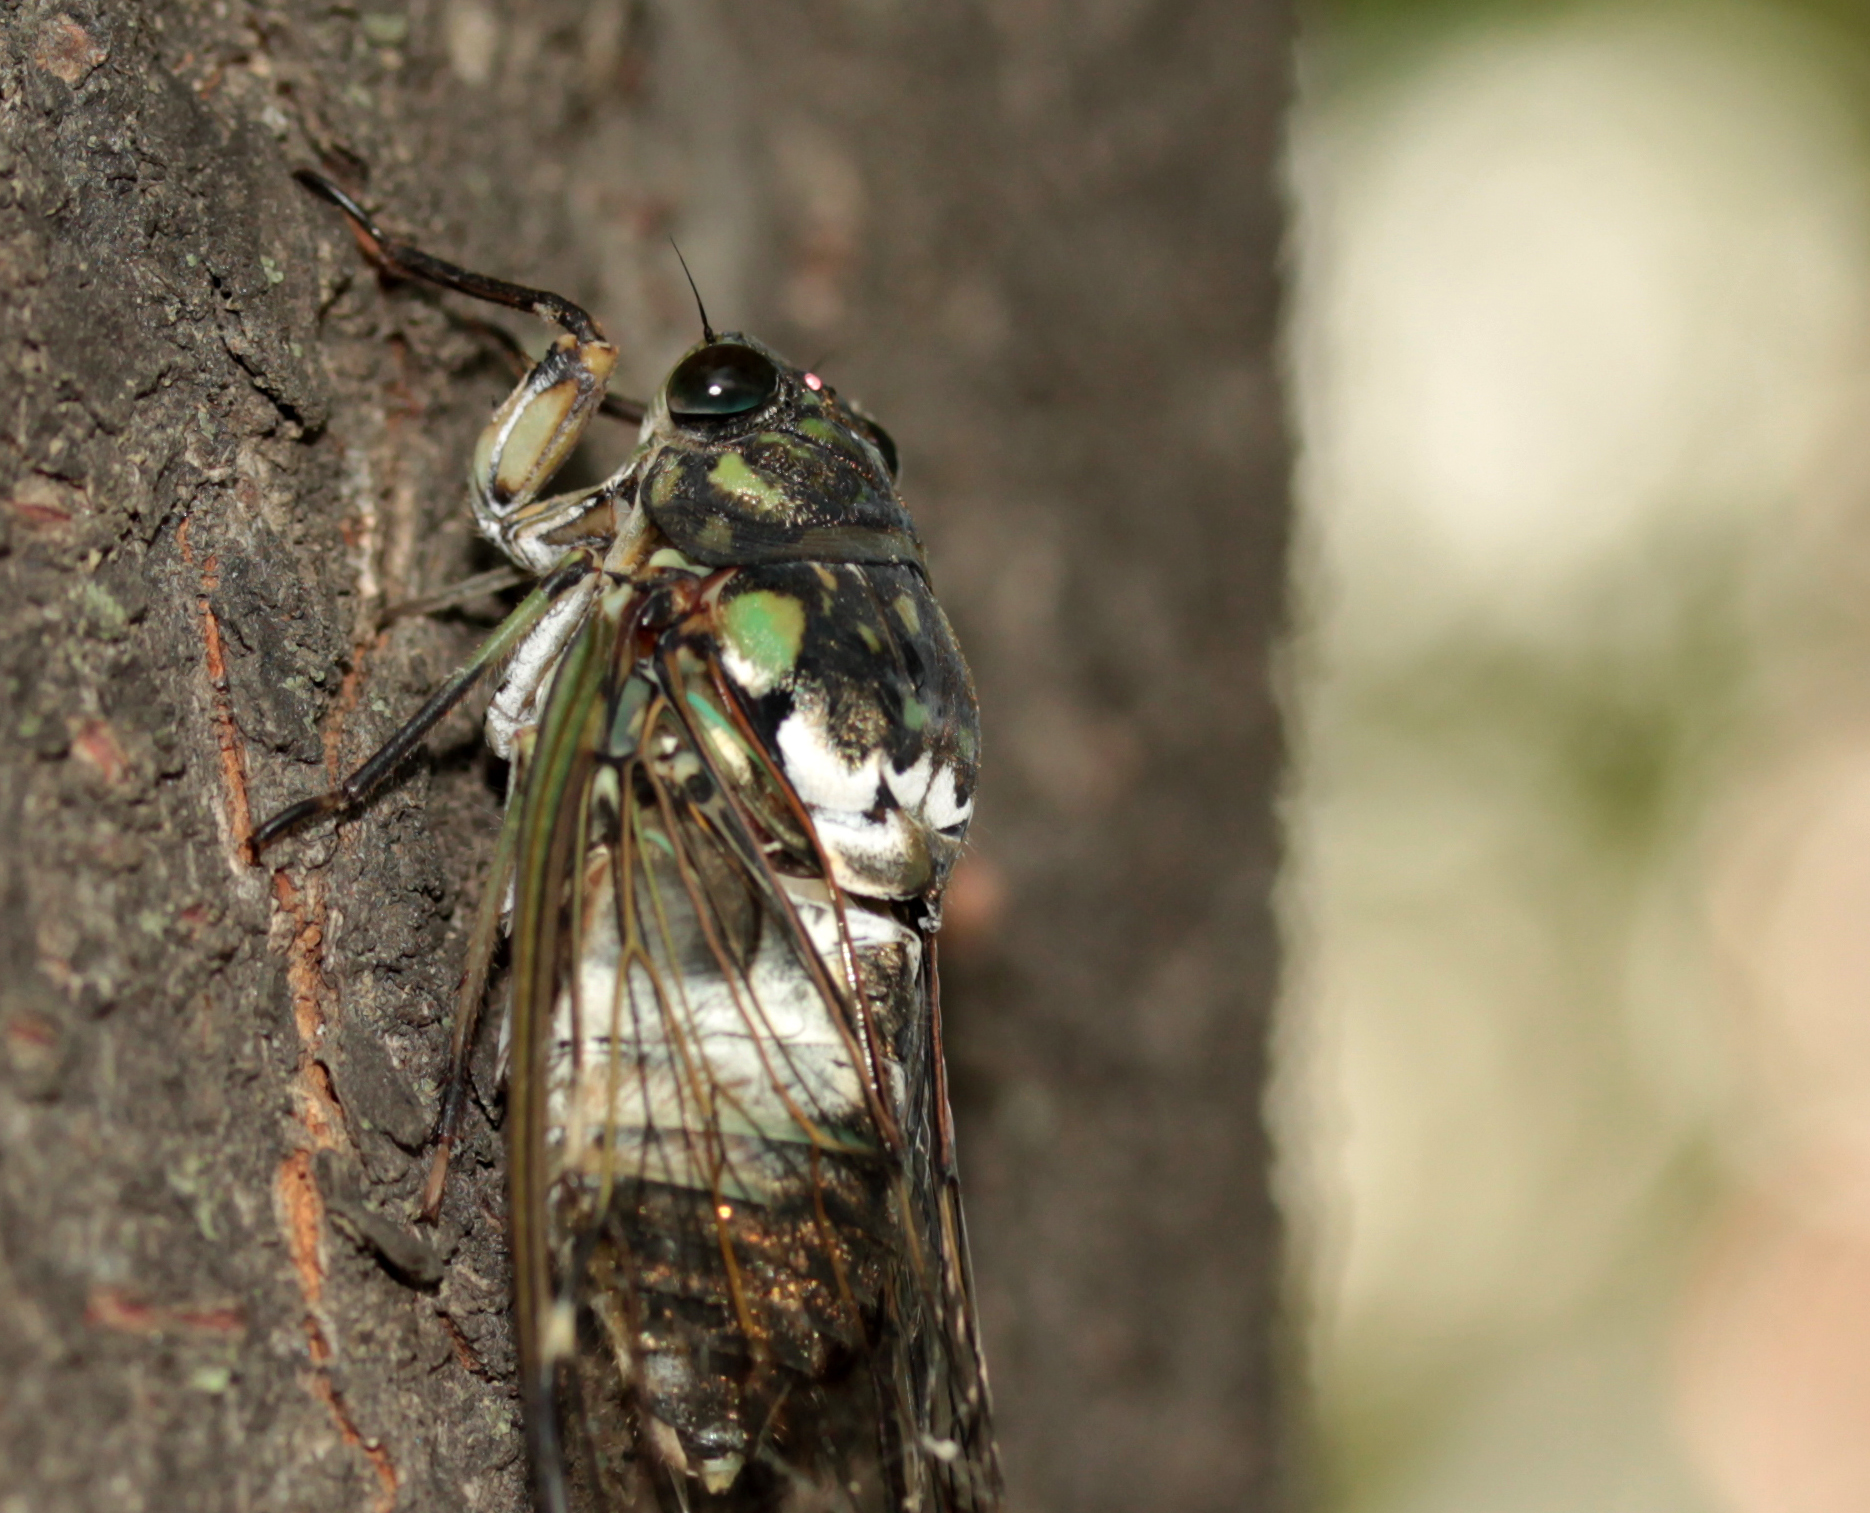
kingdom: Animalia
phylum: Arthropoda
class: Insecta
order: Hemiptera
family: Cicadidae
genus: Hyalessa
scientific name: Hyalessa maculaticollis
